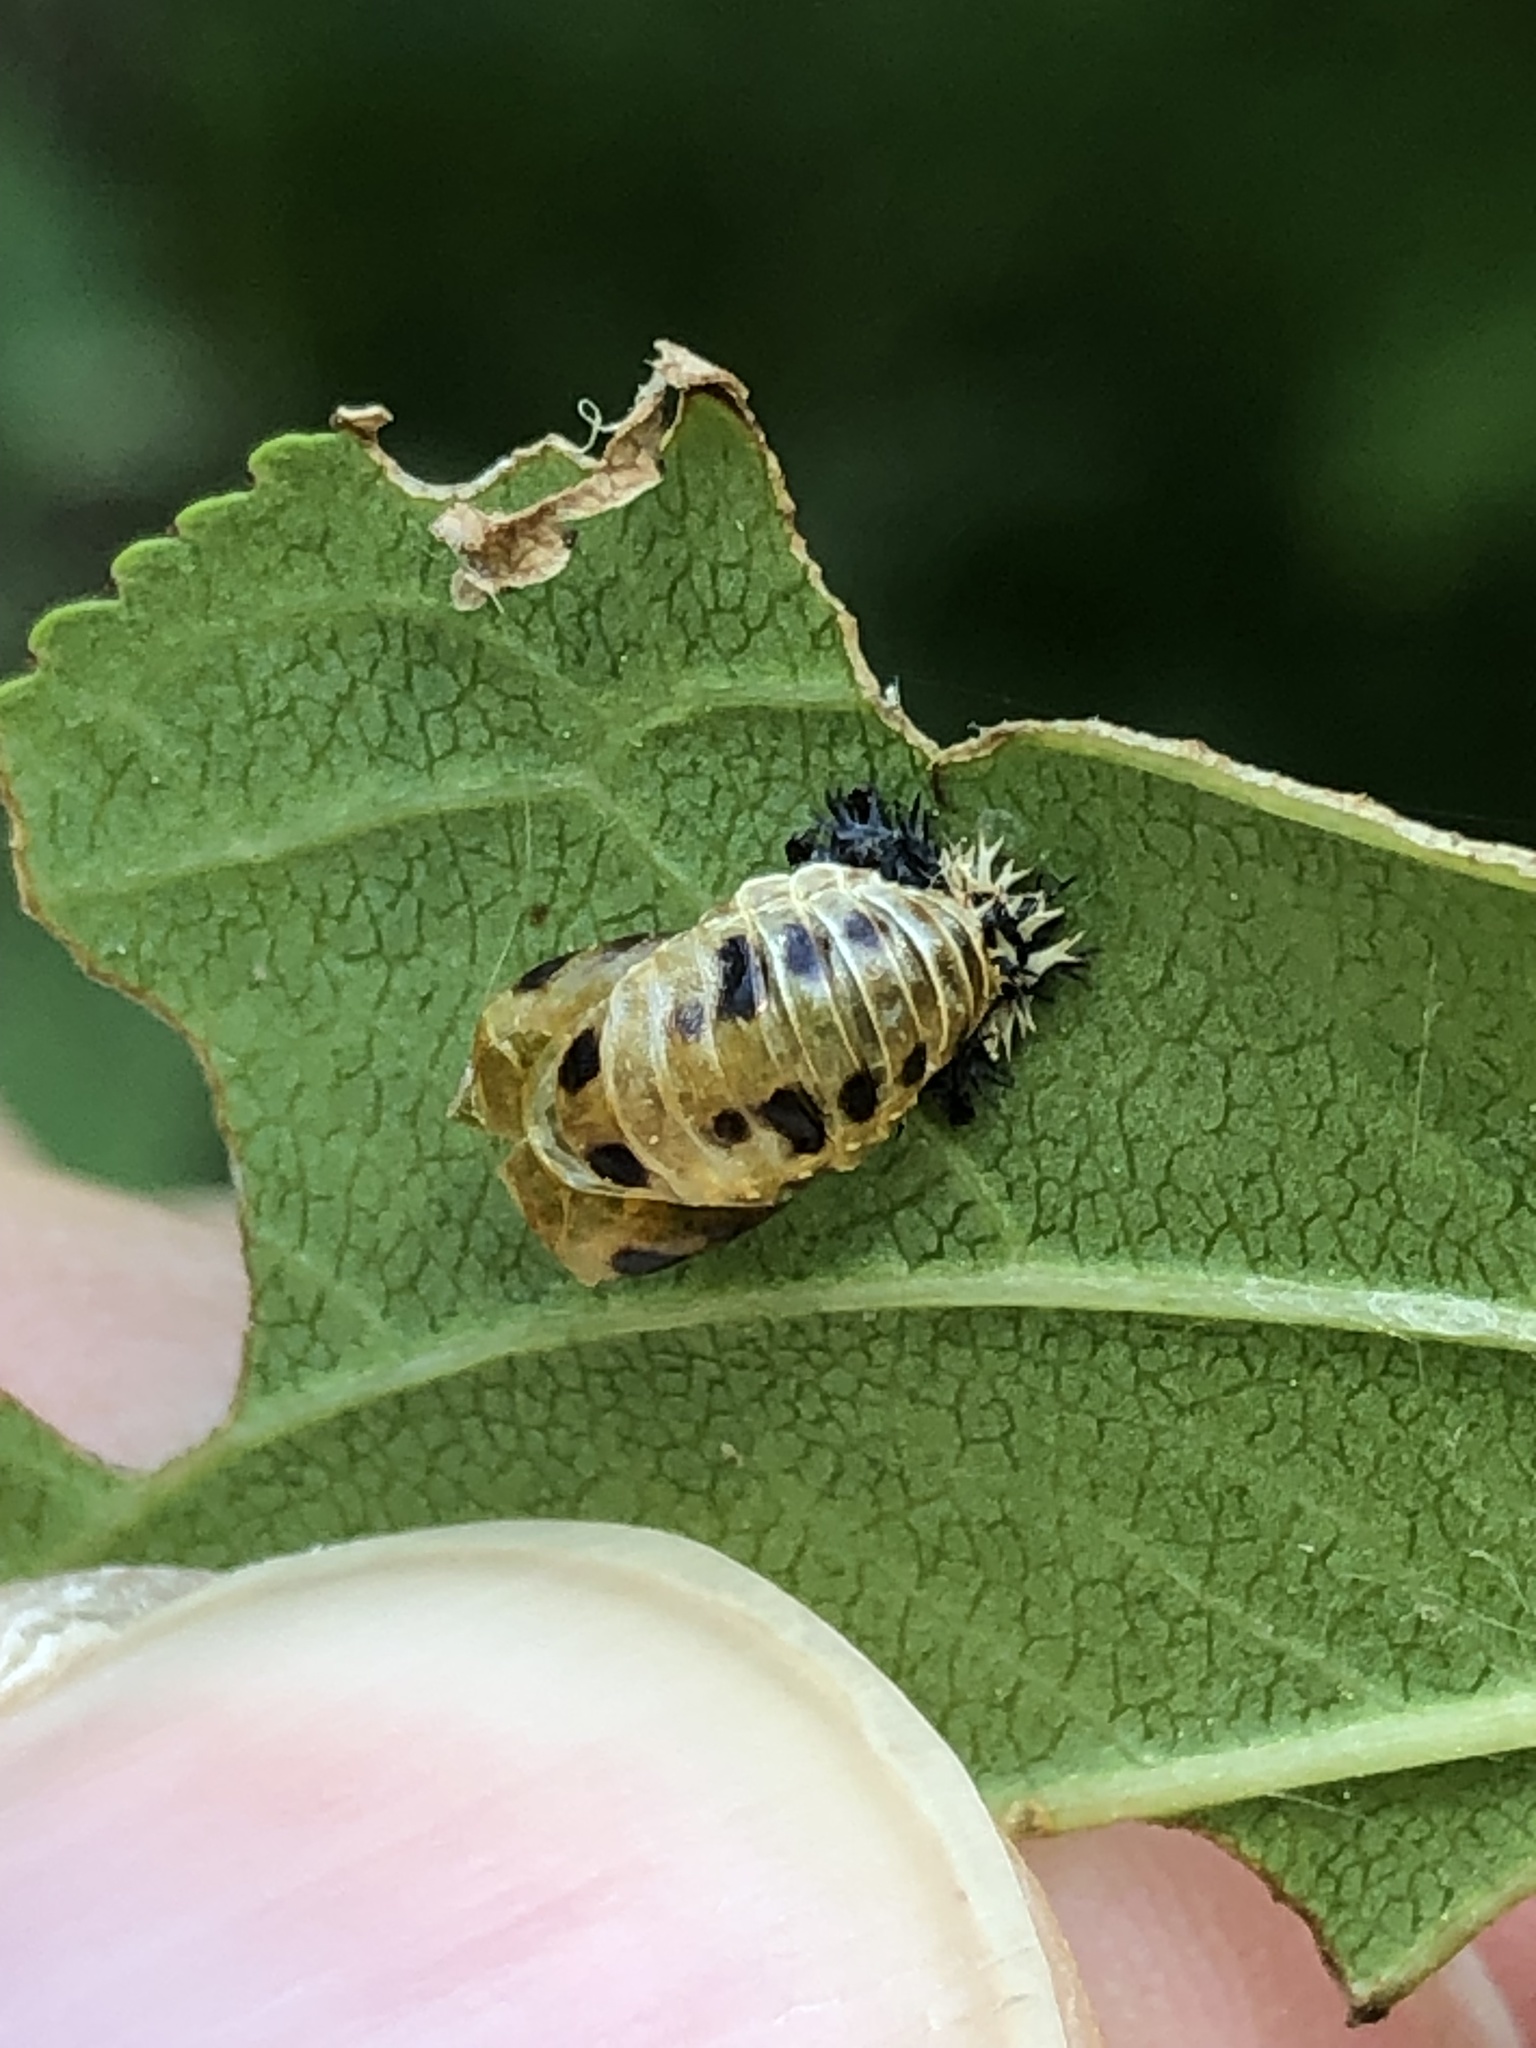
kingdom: Animalia
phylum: Arthropoda
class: Insecta
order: Coleoptera
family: Coccinellidae
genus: Harmonia
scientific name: Harmonia axyridis
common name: Harlequin ladybird
